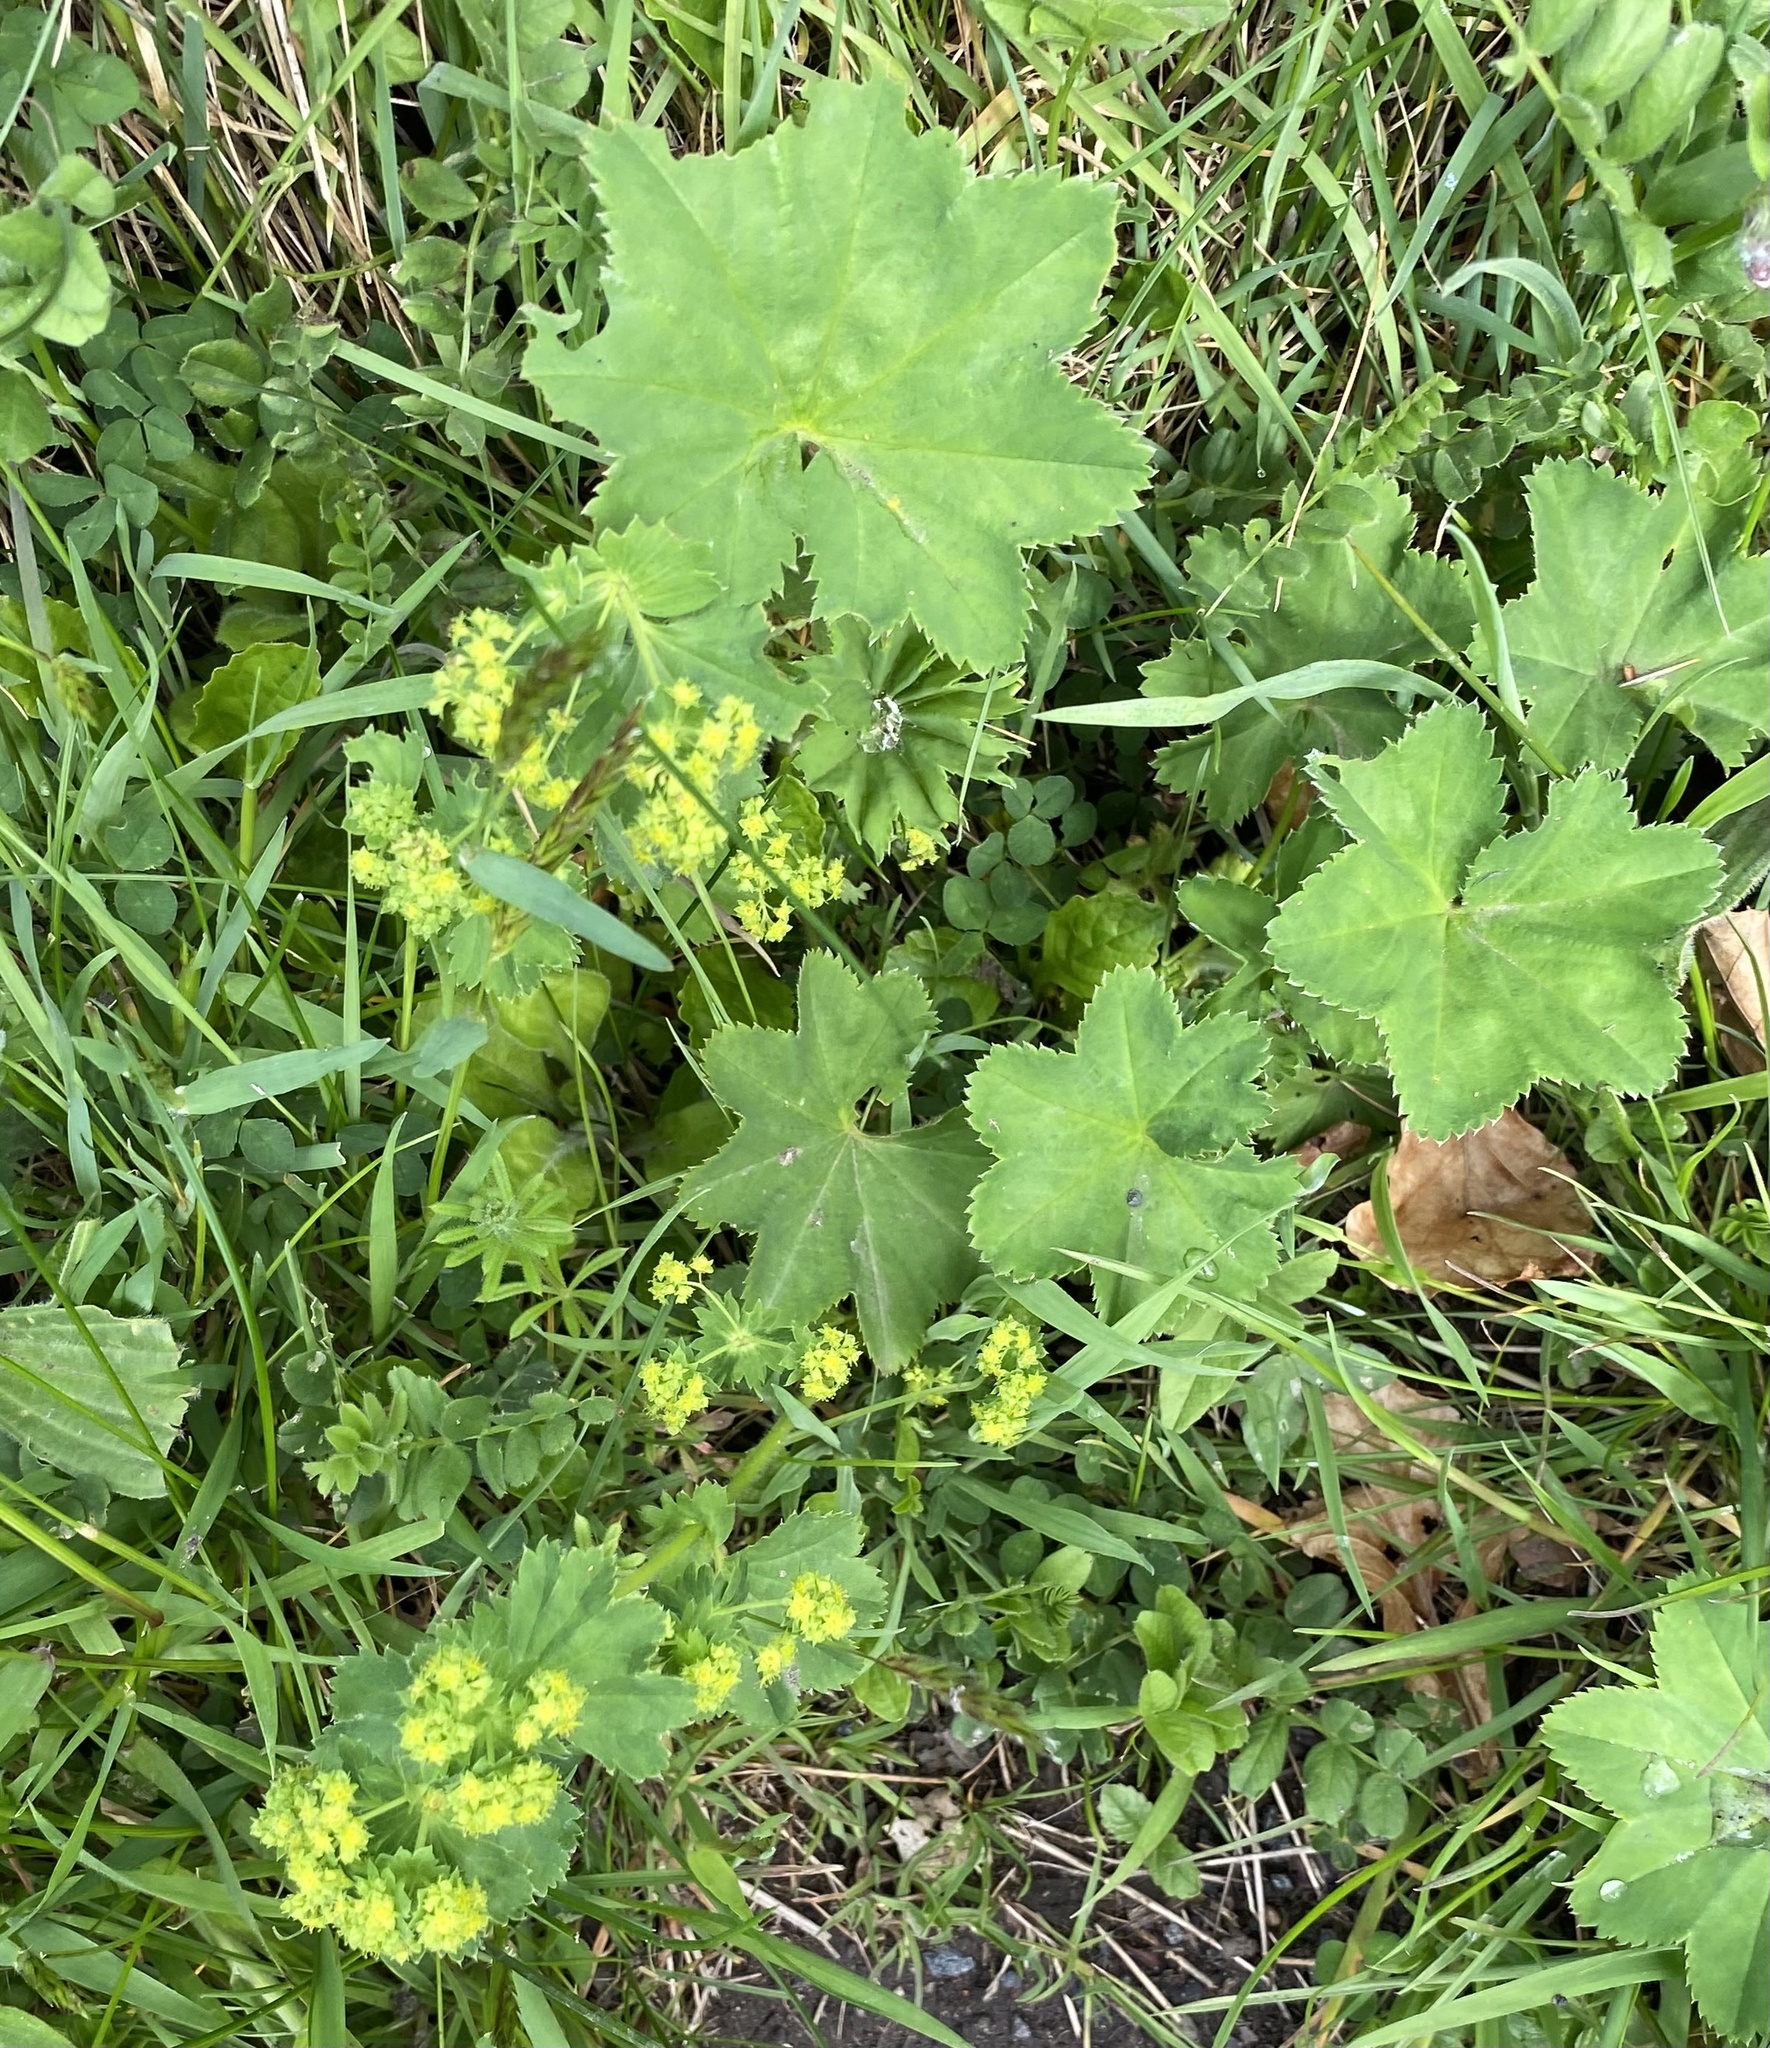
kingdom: Plantae
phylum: Tracheophyta
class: Magnoliopsida
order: Rosales
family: Rosaceae
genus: Alchemilla
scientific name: Alchemilla vulgaris
